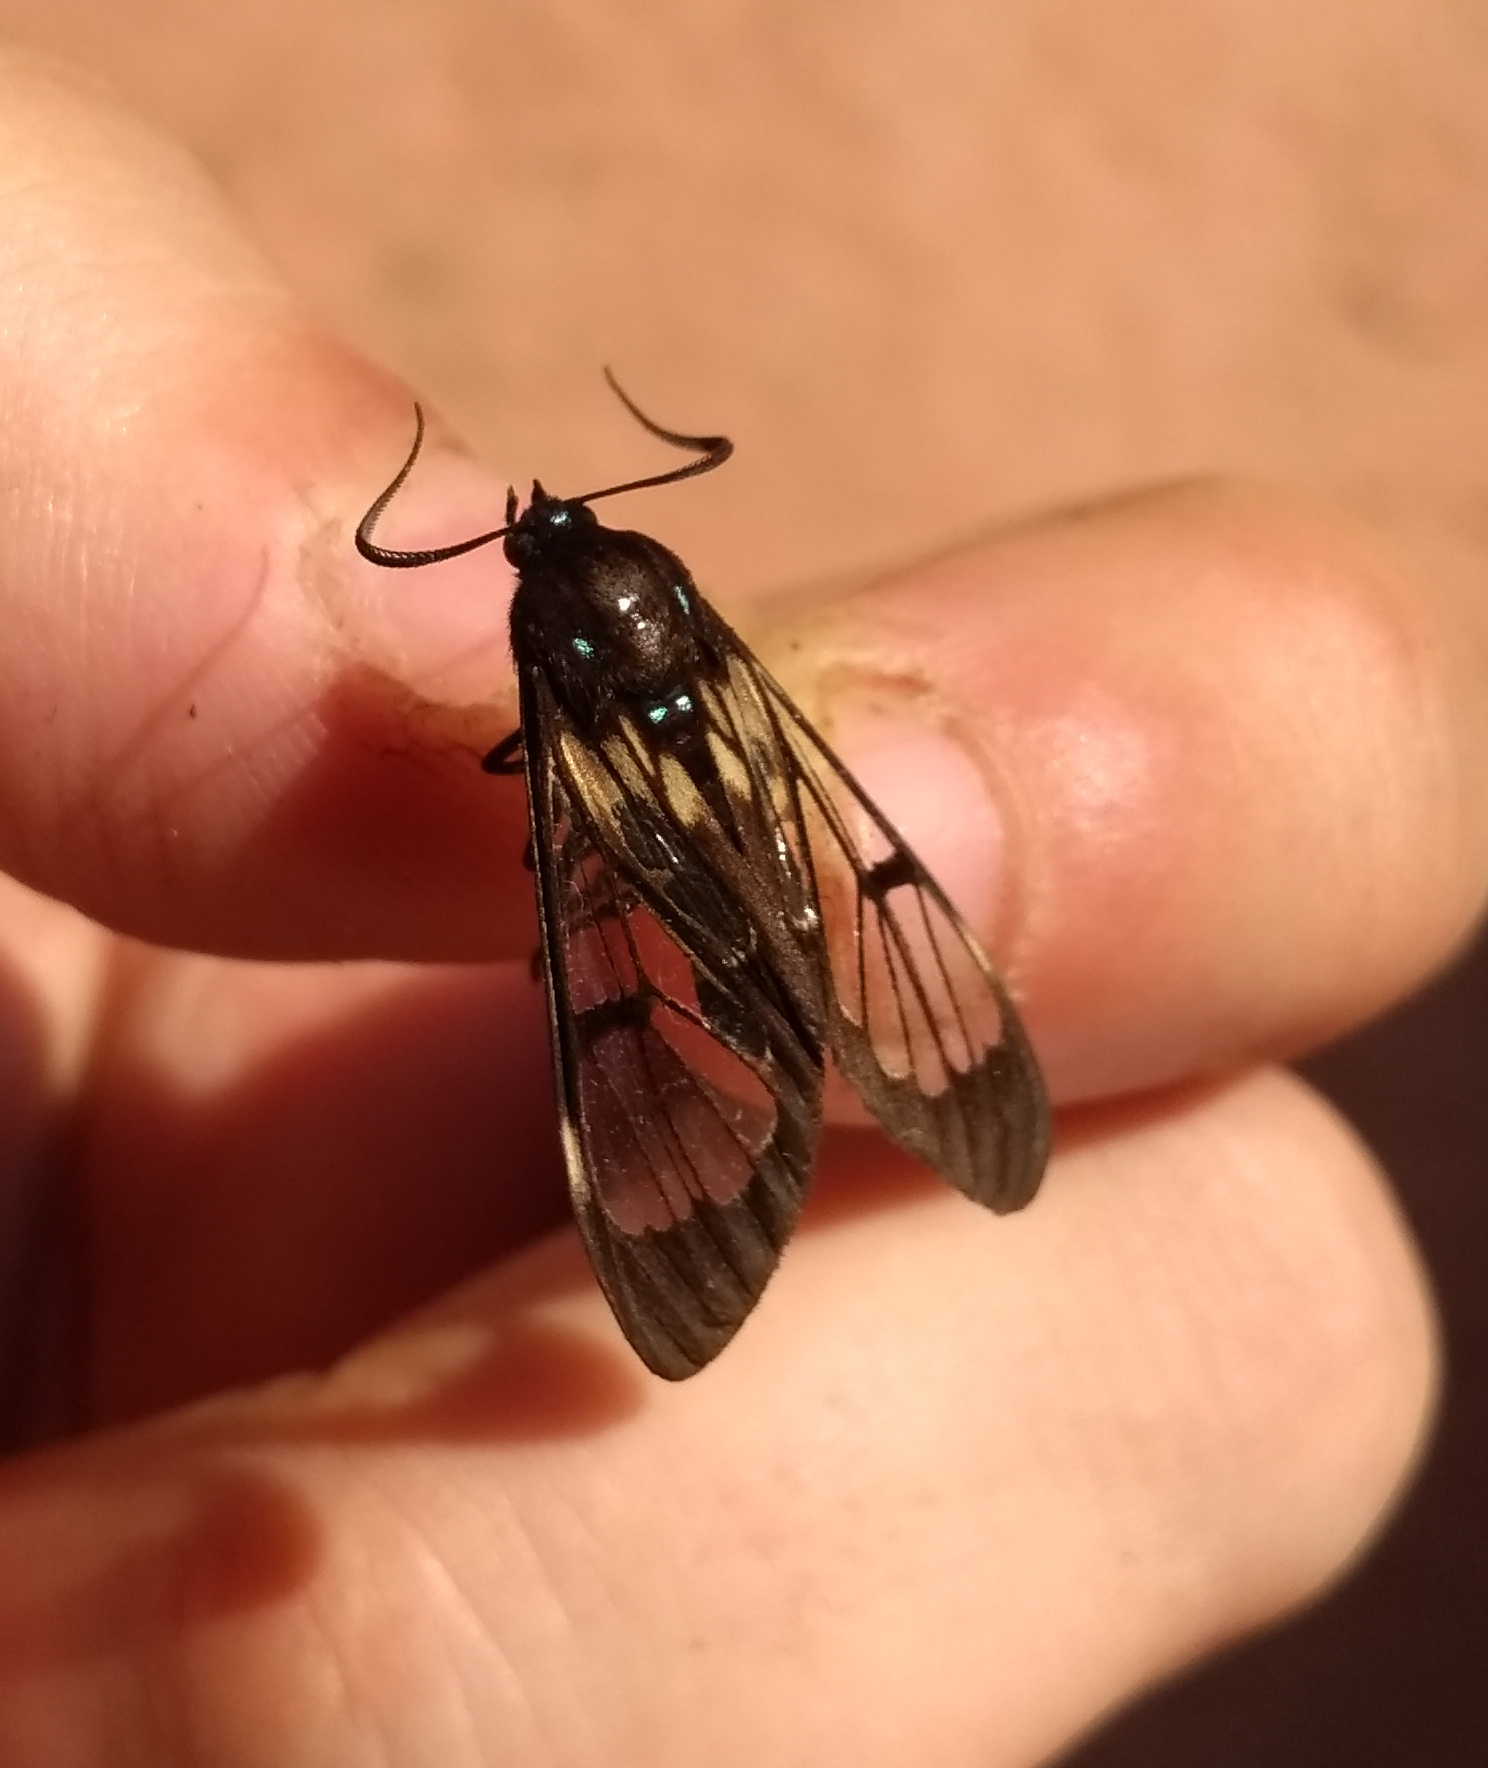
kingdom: Animalia
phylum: Arthropoda
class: Insecta
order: Lepidoptera
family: Erebidae
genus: Neotrichura
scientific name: Neotrichura nigripes
